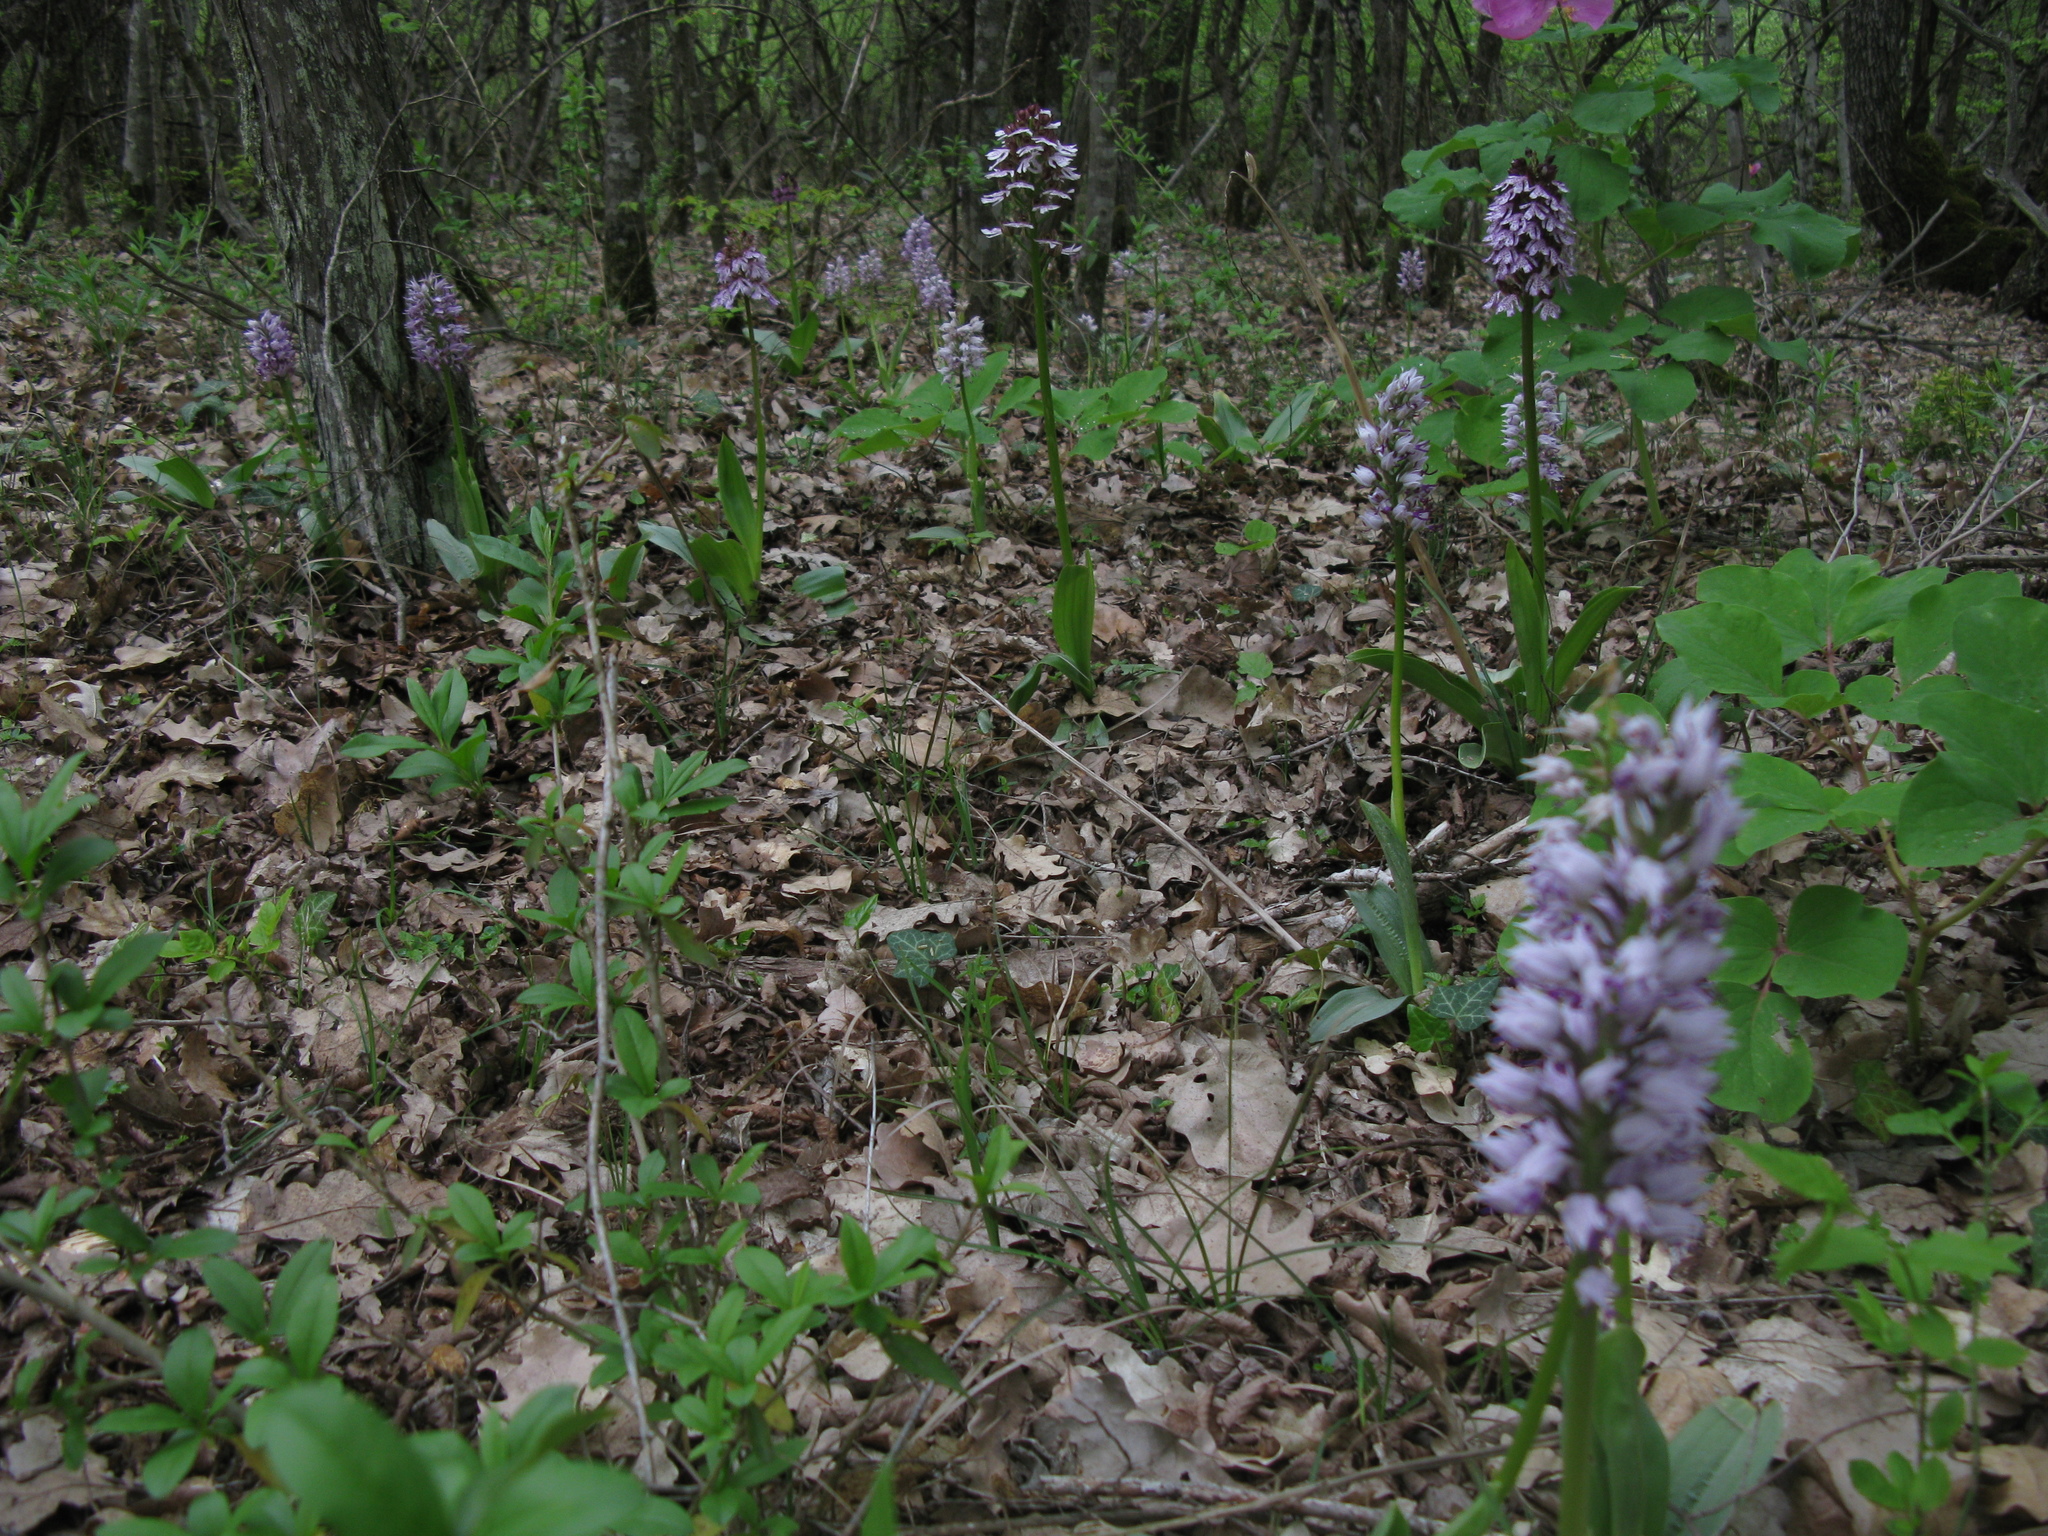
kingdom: Plantae
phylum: Tracheophyta
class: Liliopsida
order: Asparagales
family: Orchidaceae
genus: Orchis
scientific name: Orchis purpurea
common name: Lady orchid
